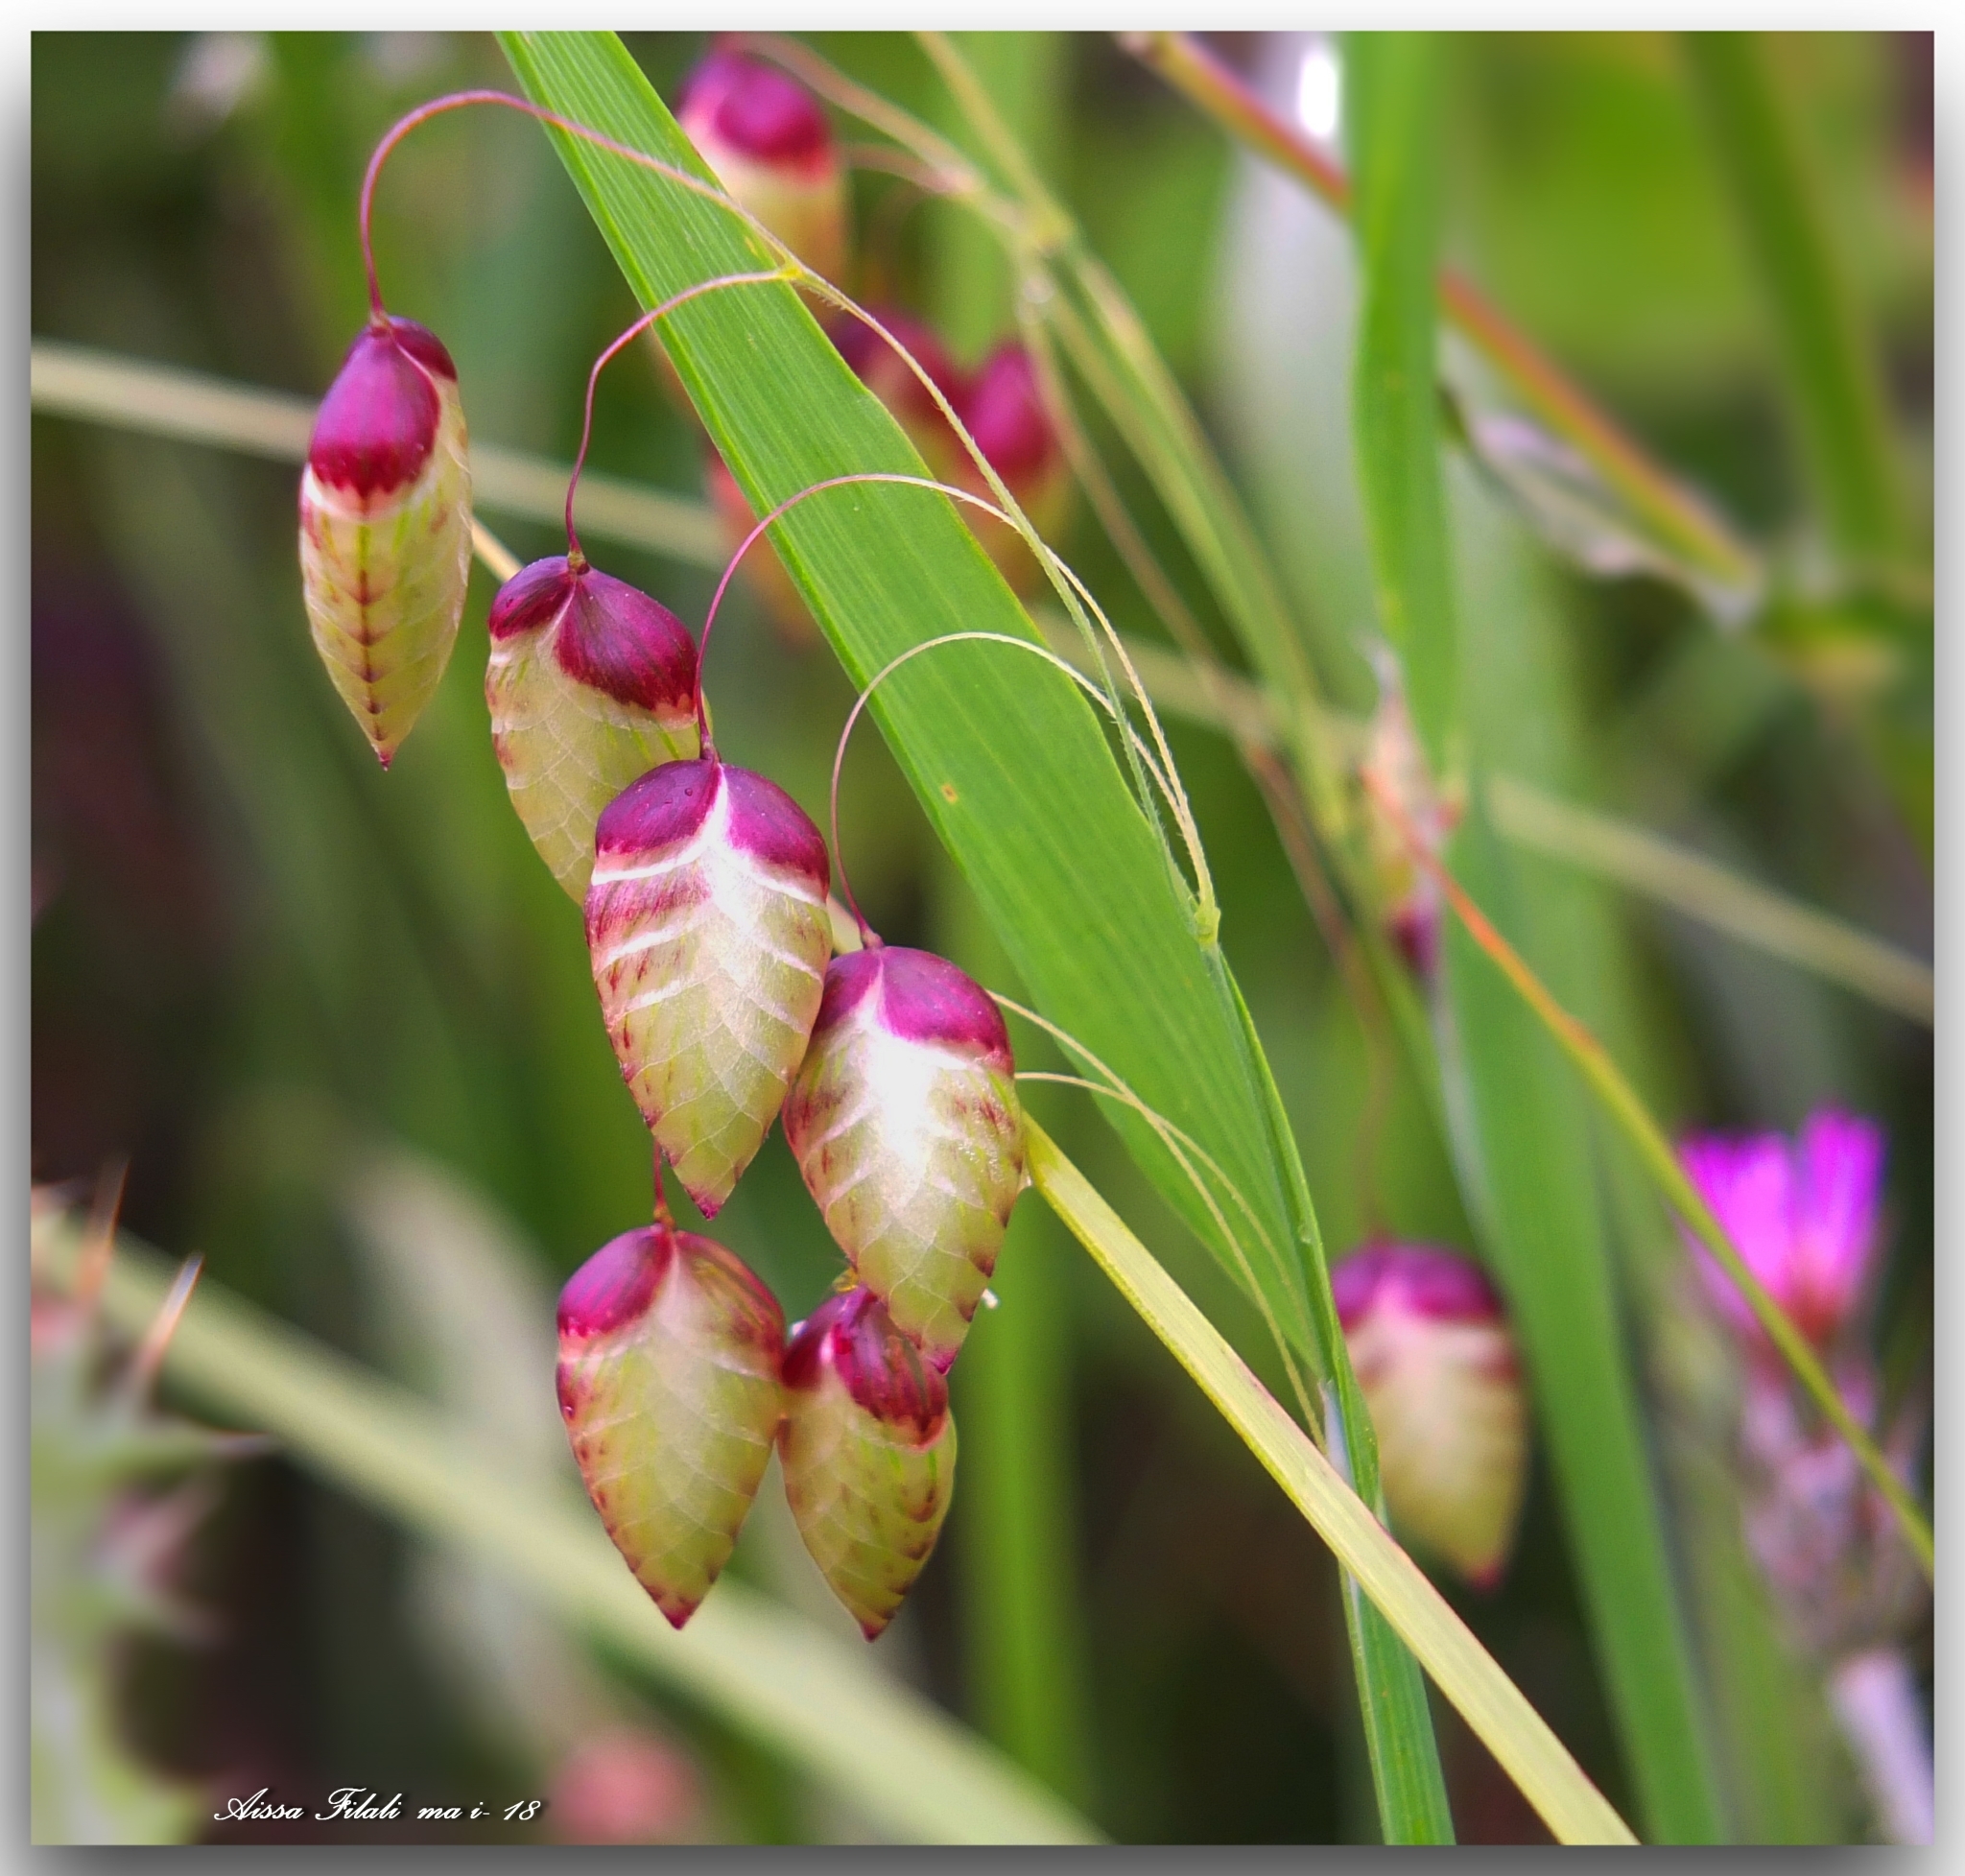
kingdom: Plantae
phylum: Tracheophyta
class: Liliopsida
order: Poales
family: Poaceae
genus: Briza
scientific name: Briza maxima
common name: Big quakinggrass
